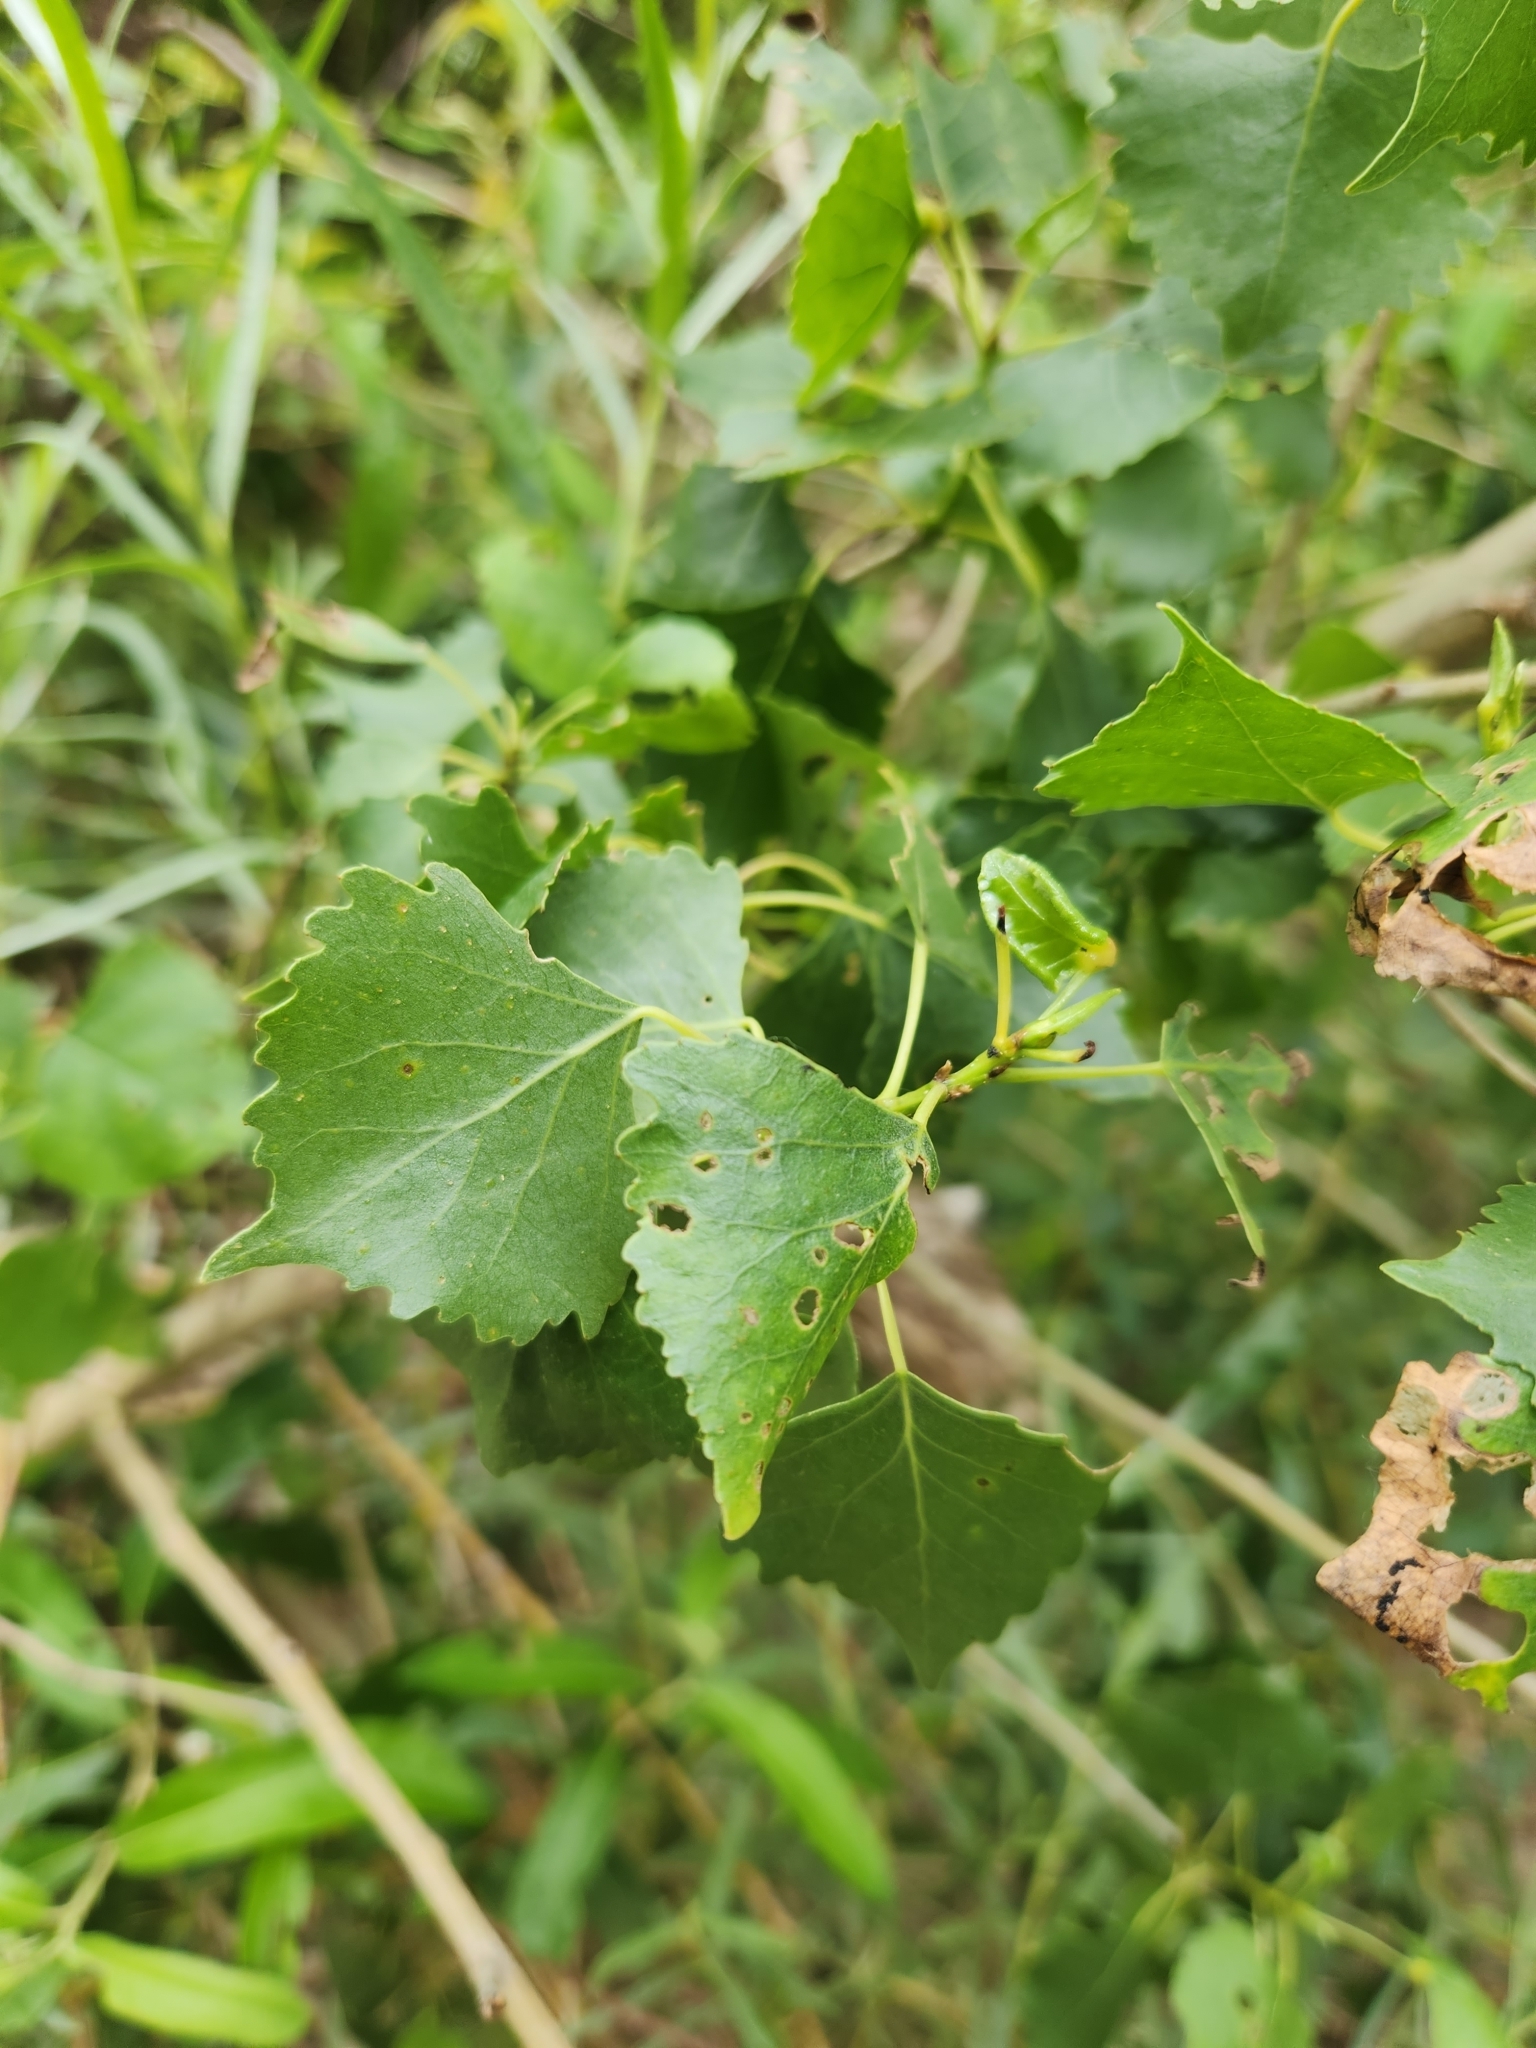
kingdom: Plantae
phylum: Tracheophyta
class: Magnoliopsida
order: Malpighiales
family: Salicaceae
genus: Populus
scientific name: Populus fremontii
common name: Fremont's cottonwood
